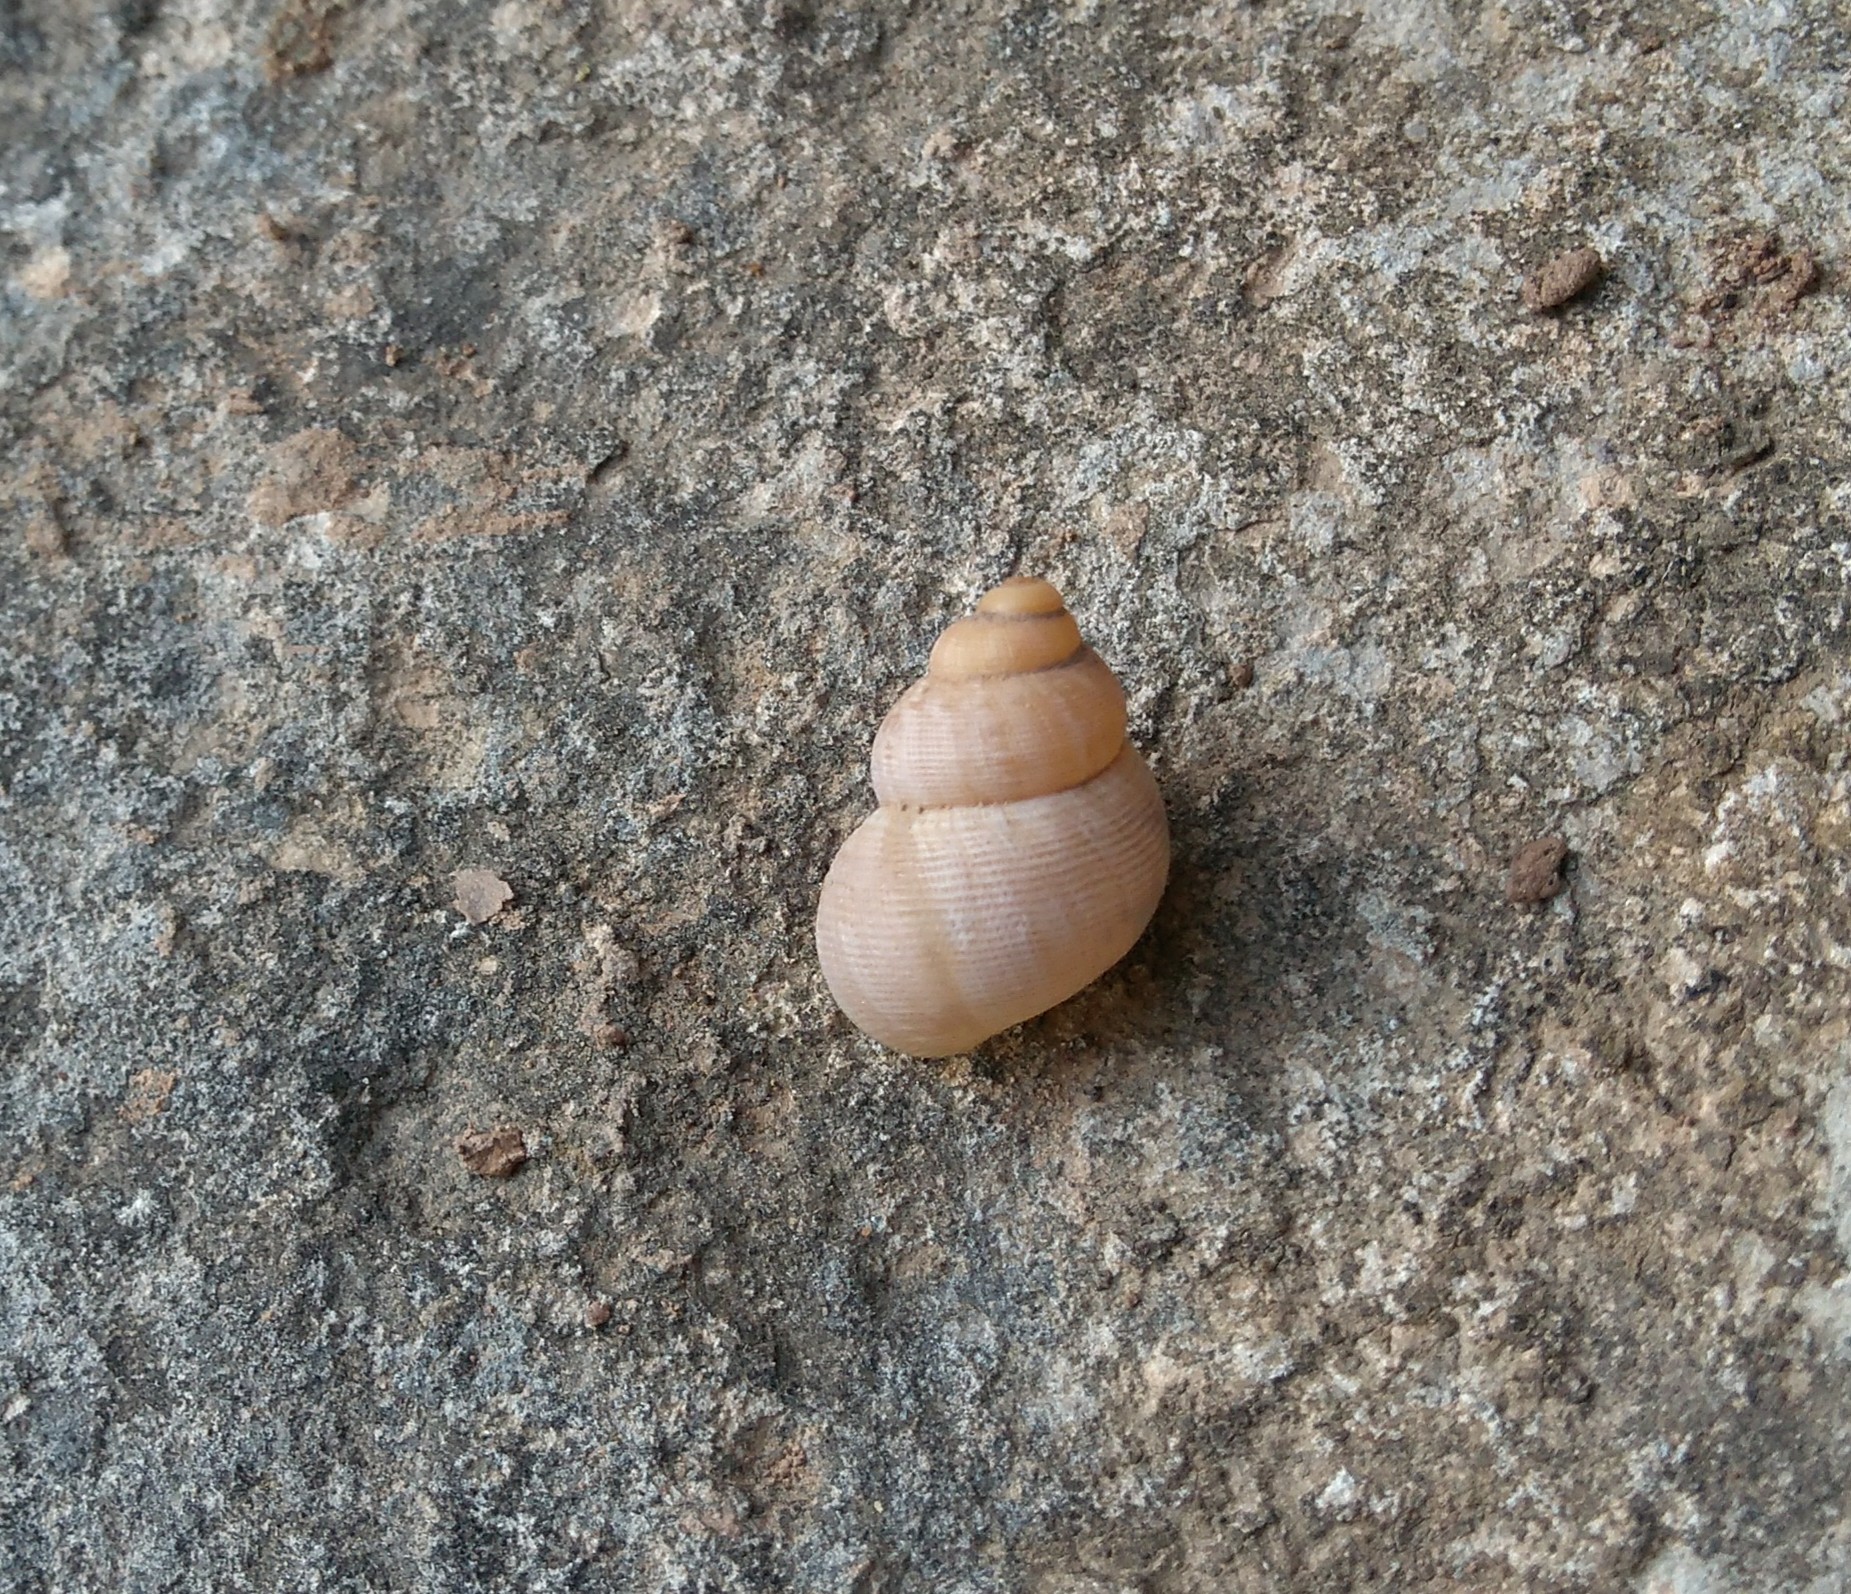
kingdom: Animalia
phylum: Mollusca
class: Gastropoda
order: Littorinimorpha
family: Pomatiidae
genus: Pomatias
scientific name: Pomatias elegans
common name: Red-mouthed snail
